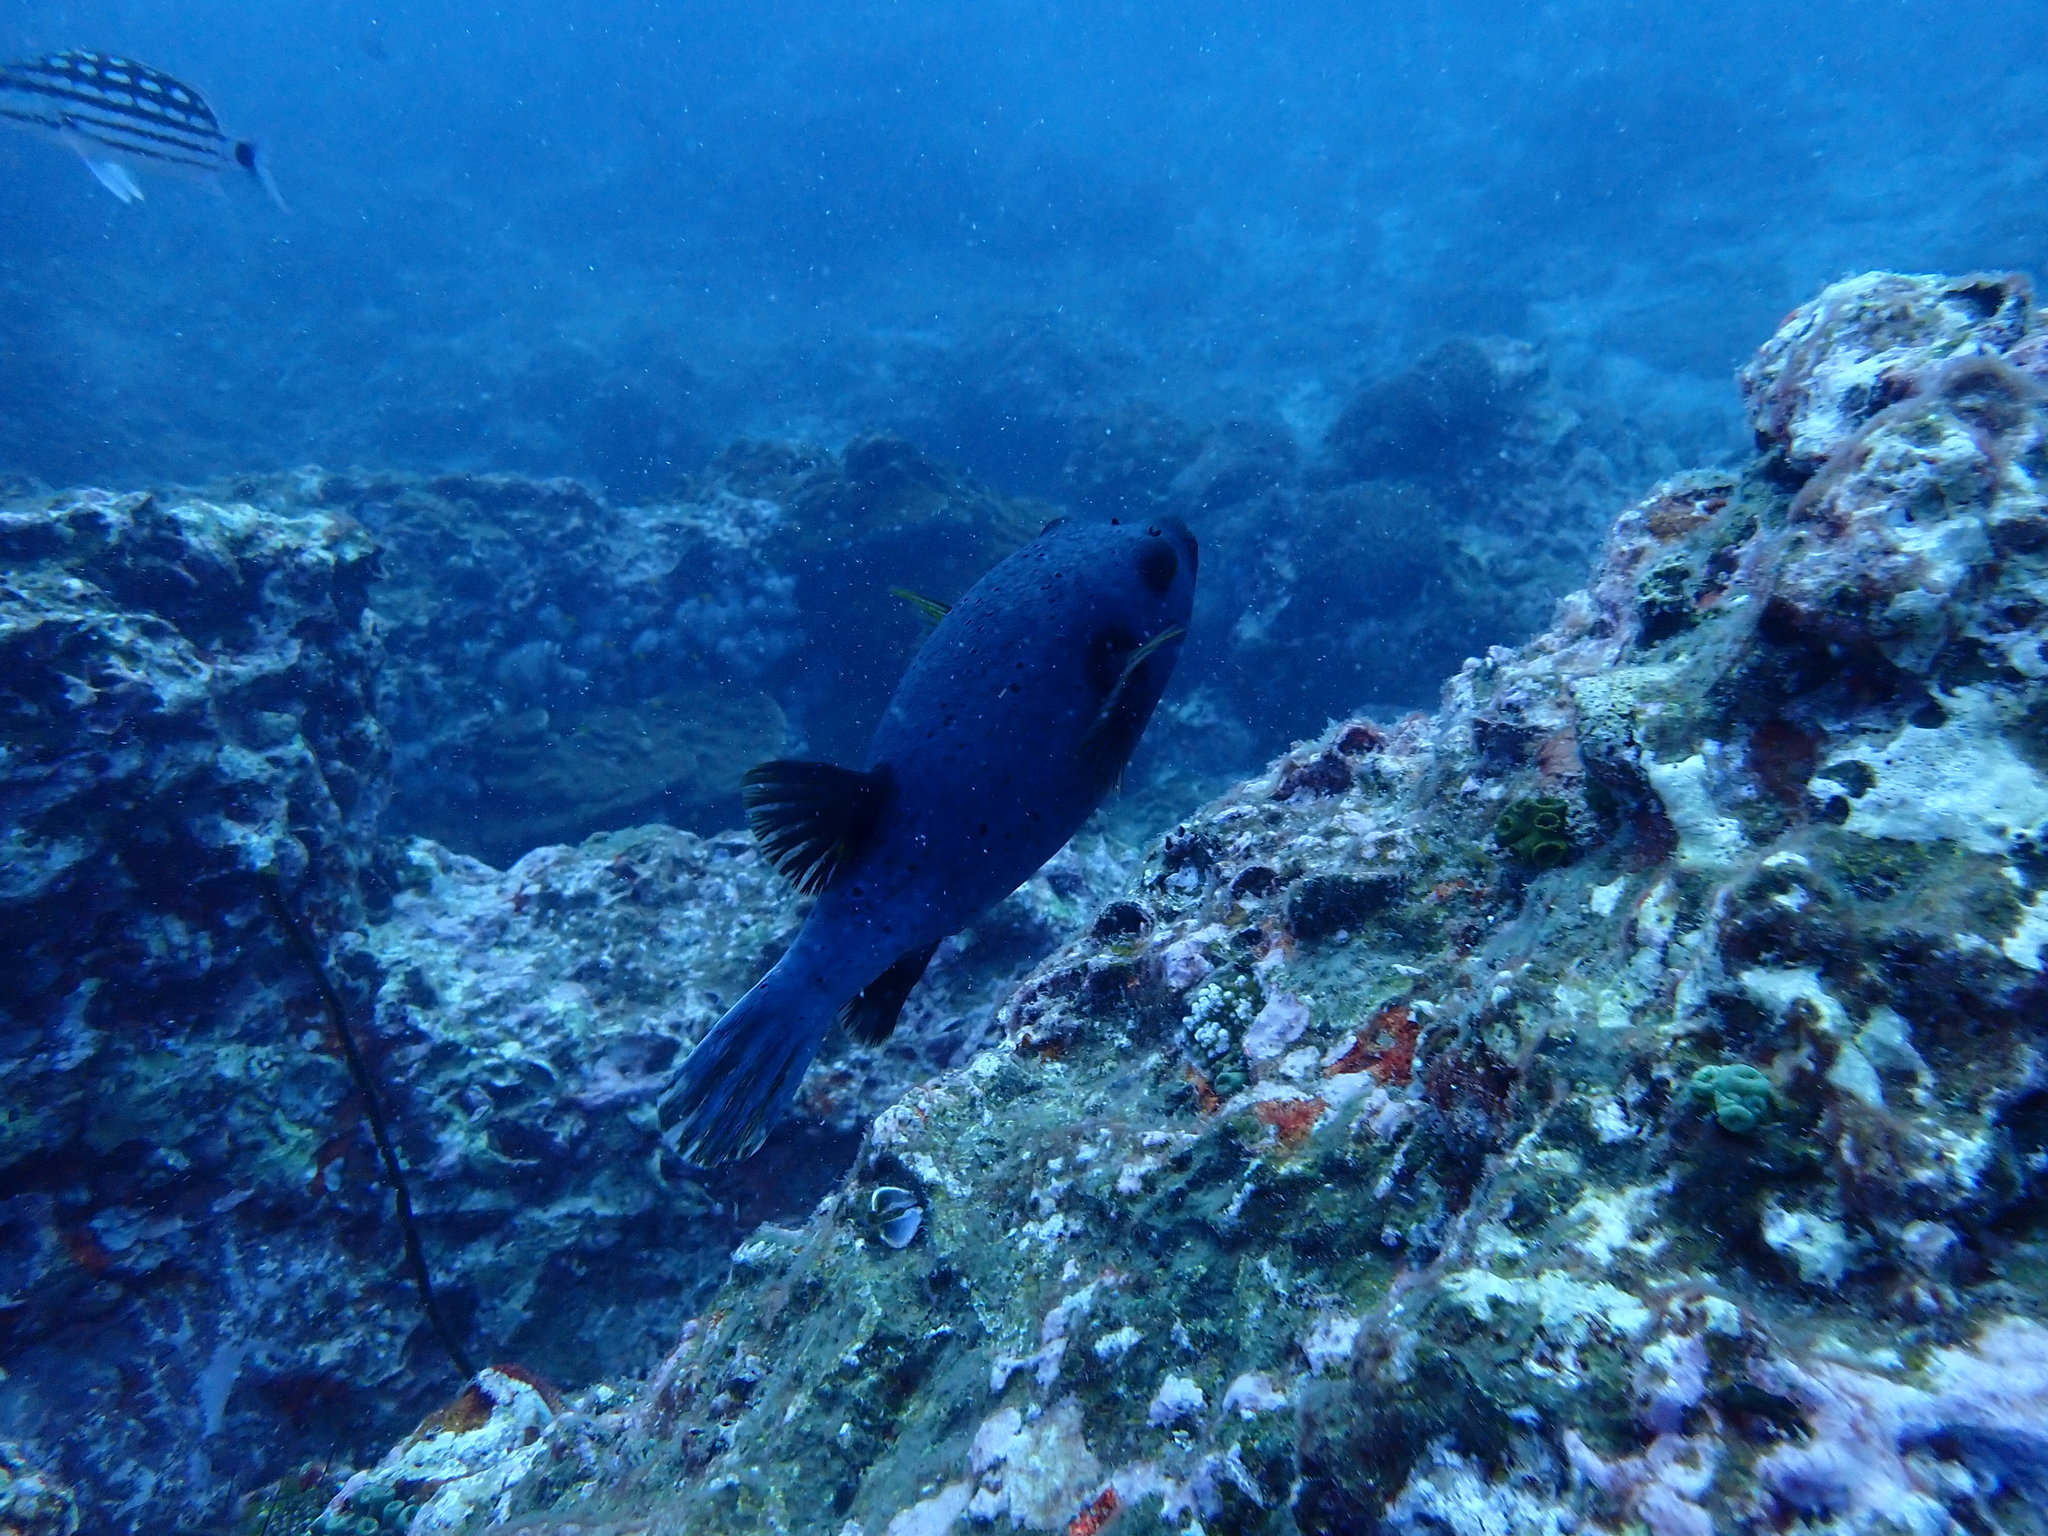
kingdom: Animalia
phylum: Chordata
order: Tetraodontiformes
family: Tetraodontidae
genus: Arothron
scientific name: Arothron nigropunctatus
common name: Black spotted blow fish
